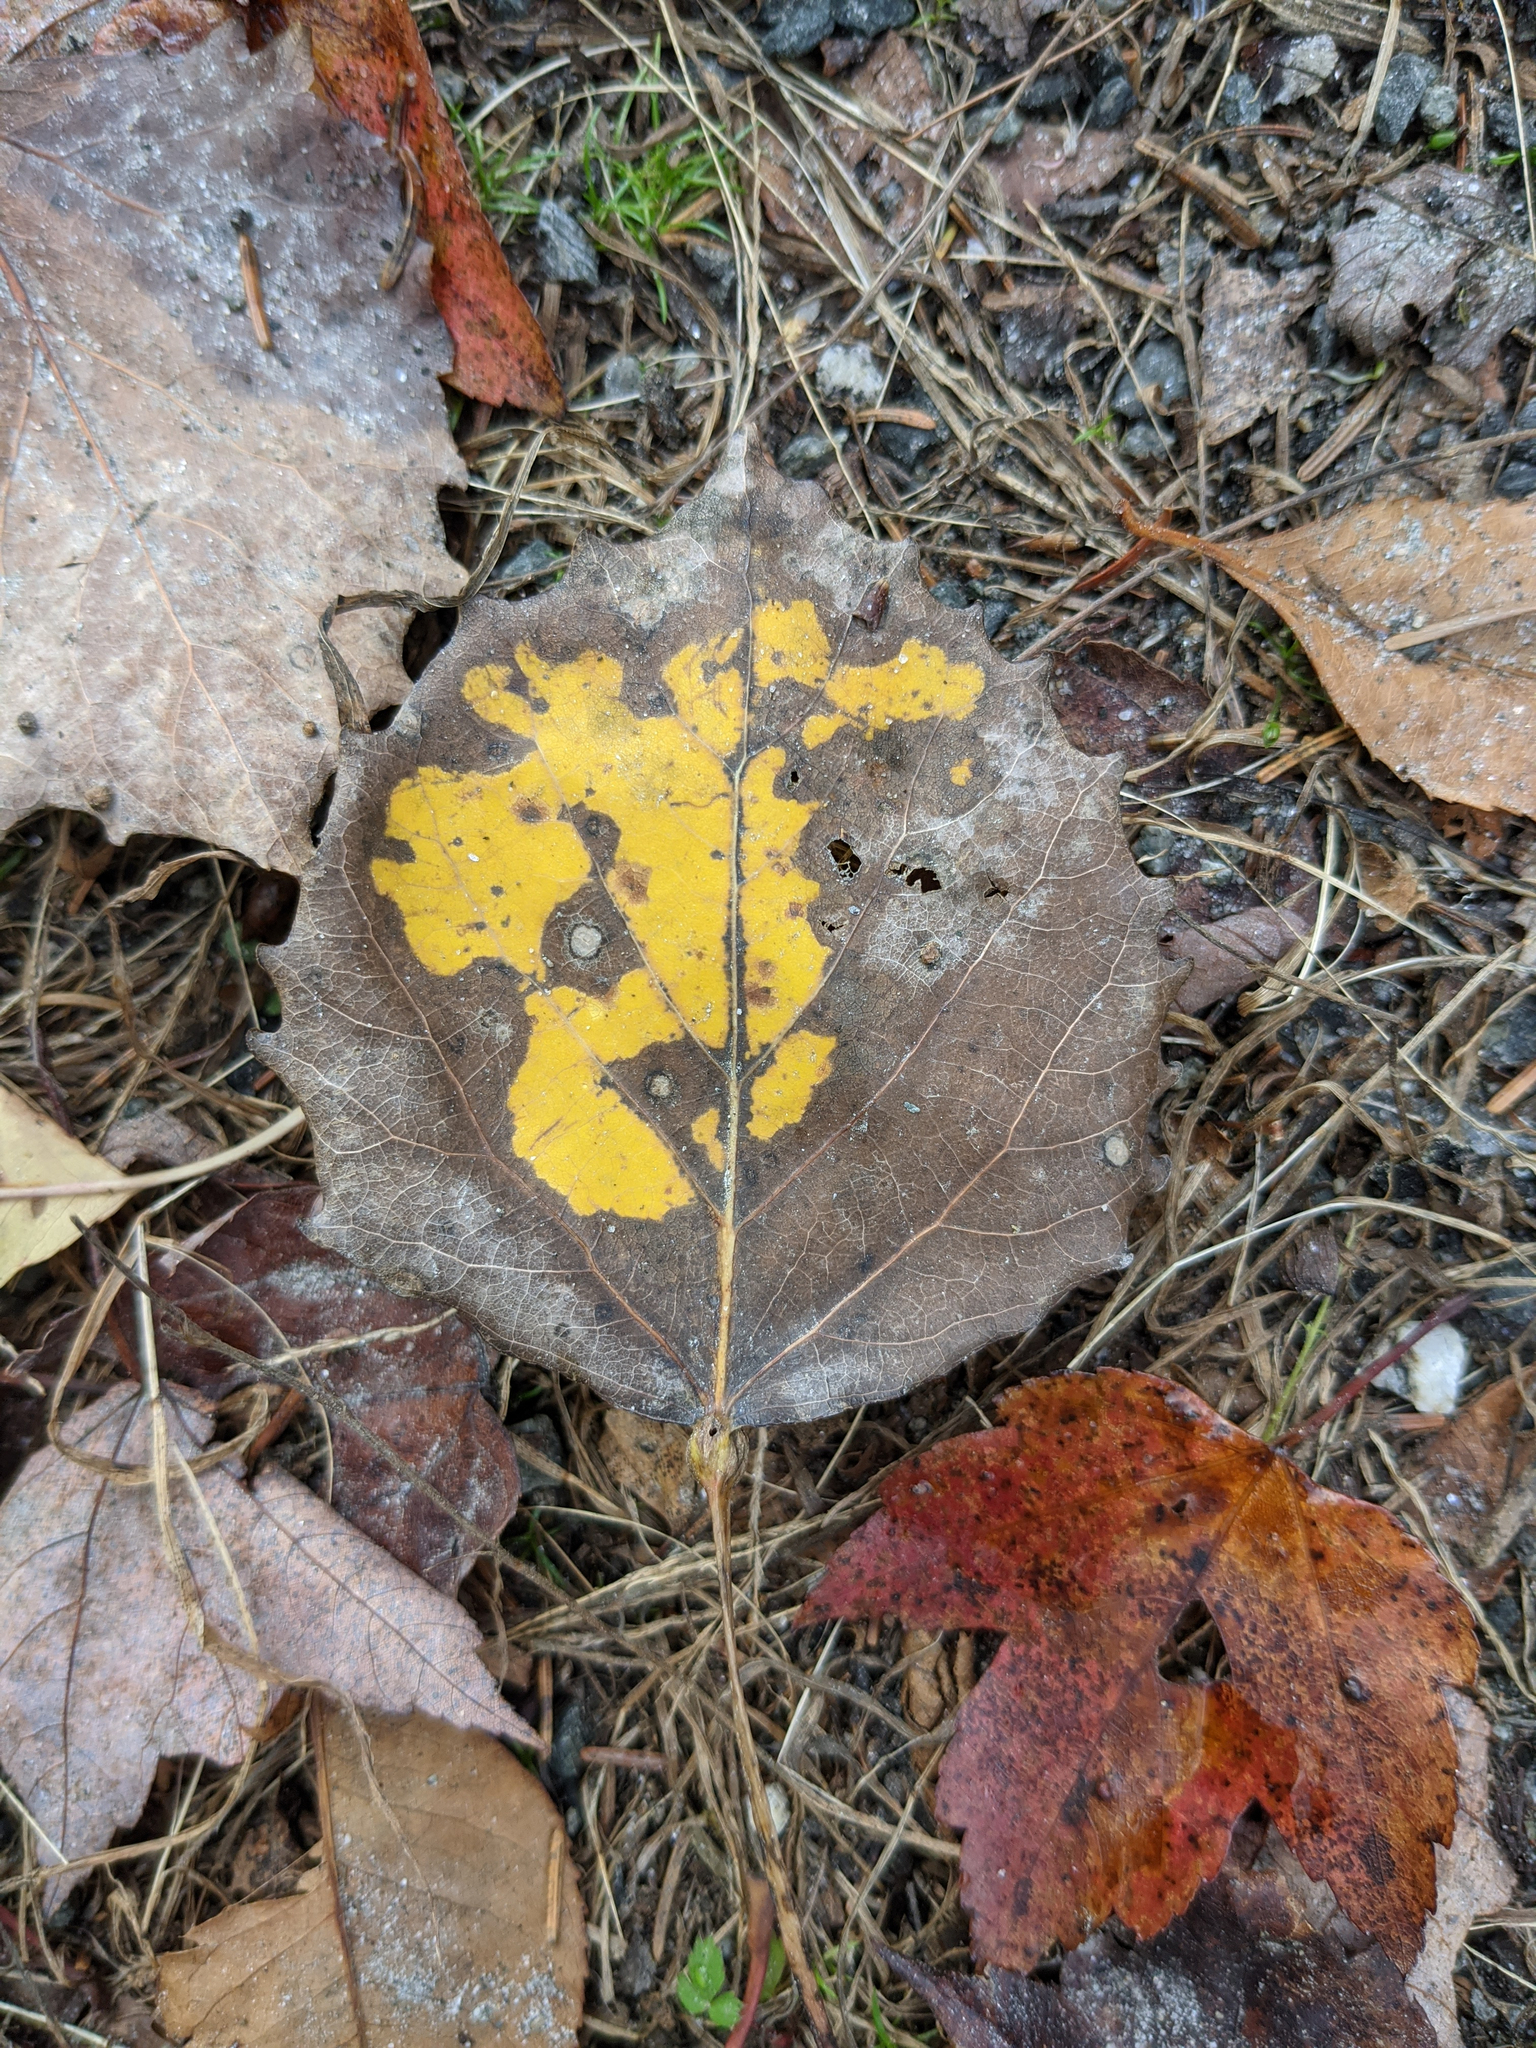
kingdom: Plantae
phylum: Tracheophyta
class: Magnoliopsida
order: Malpighiales
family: Salicaceae
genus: Populus
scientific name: Populus grandidentata
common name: Bigtooth aspen
